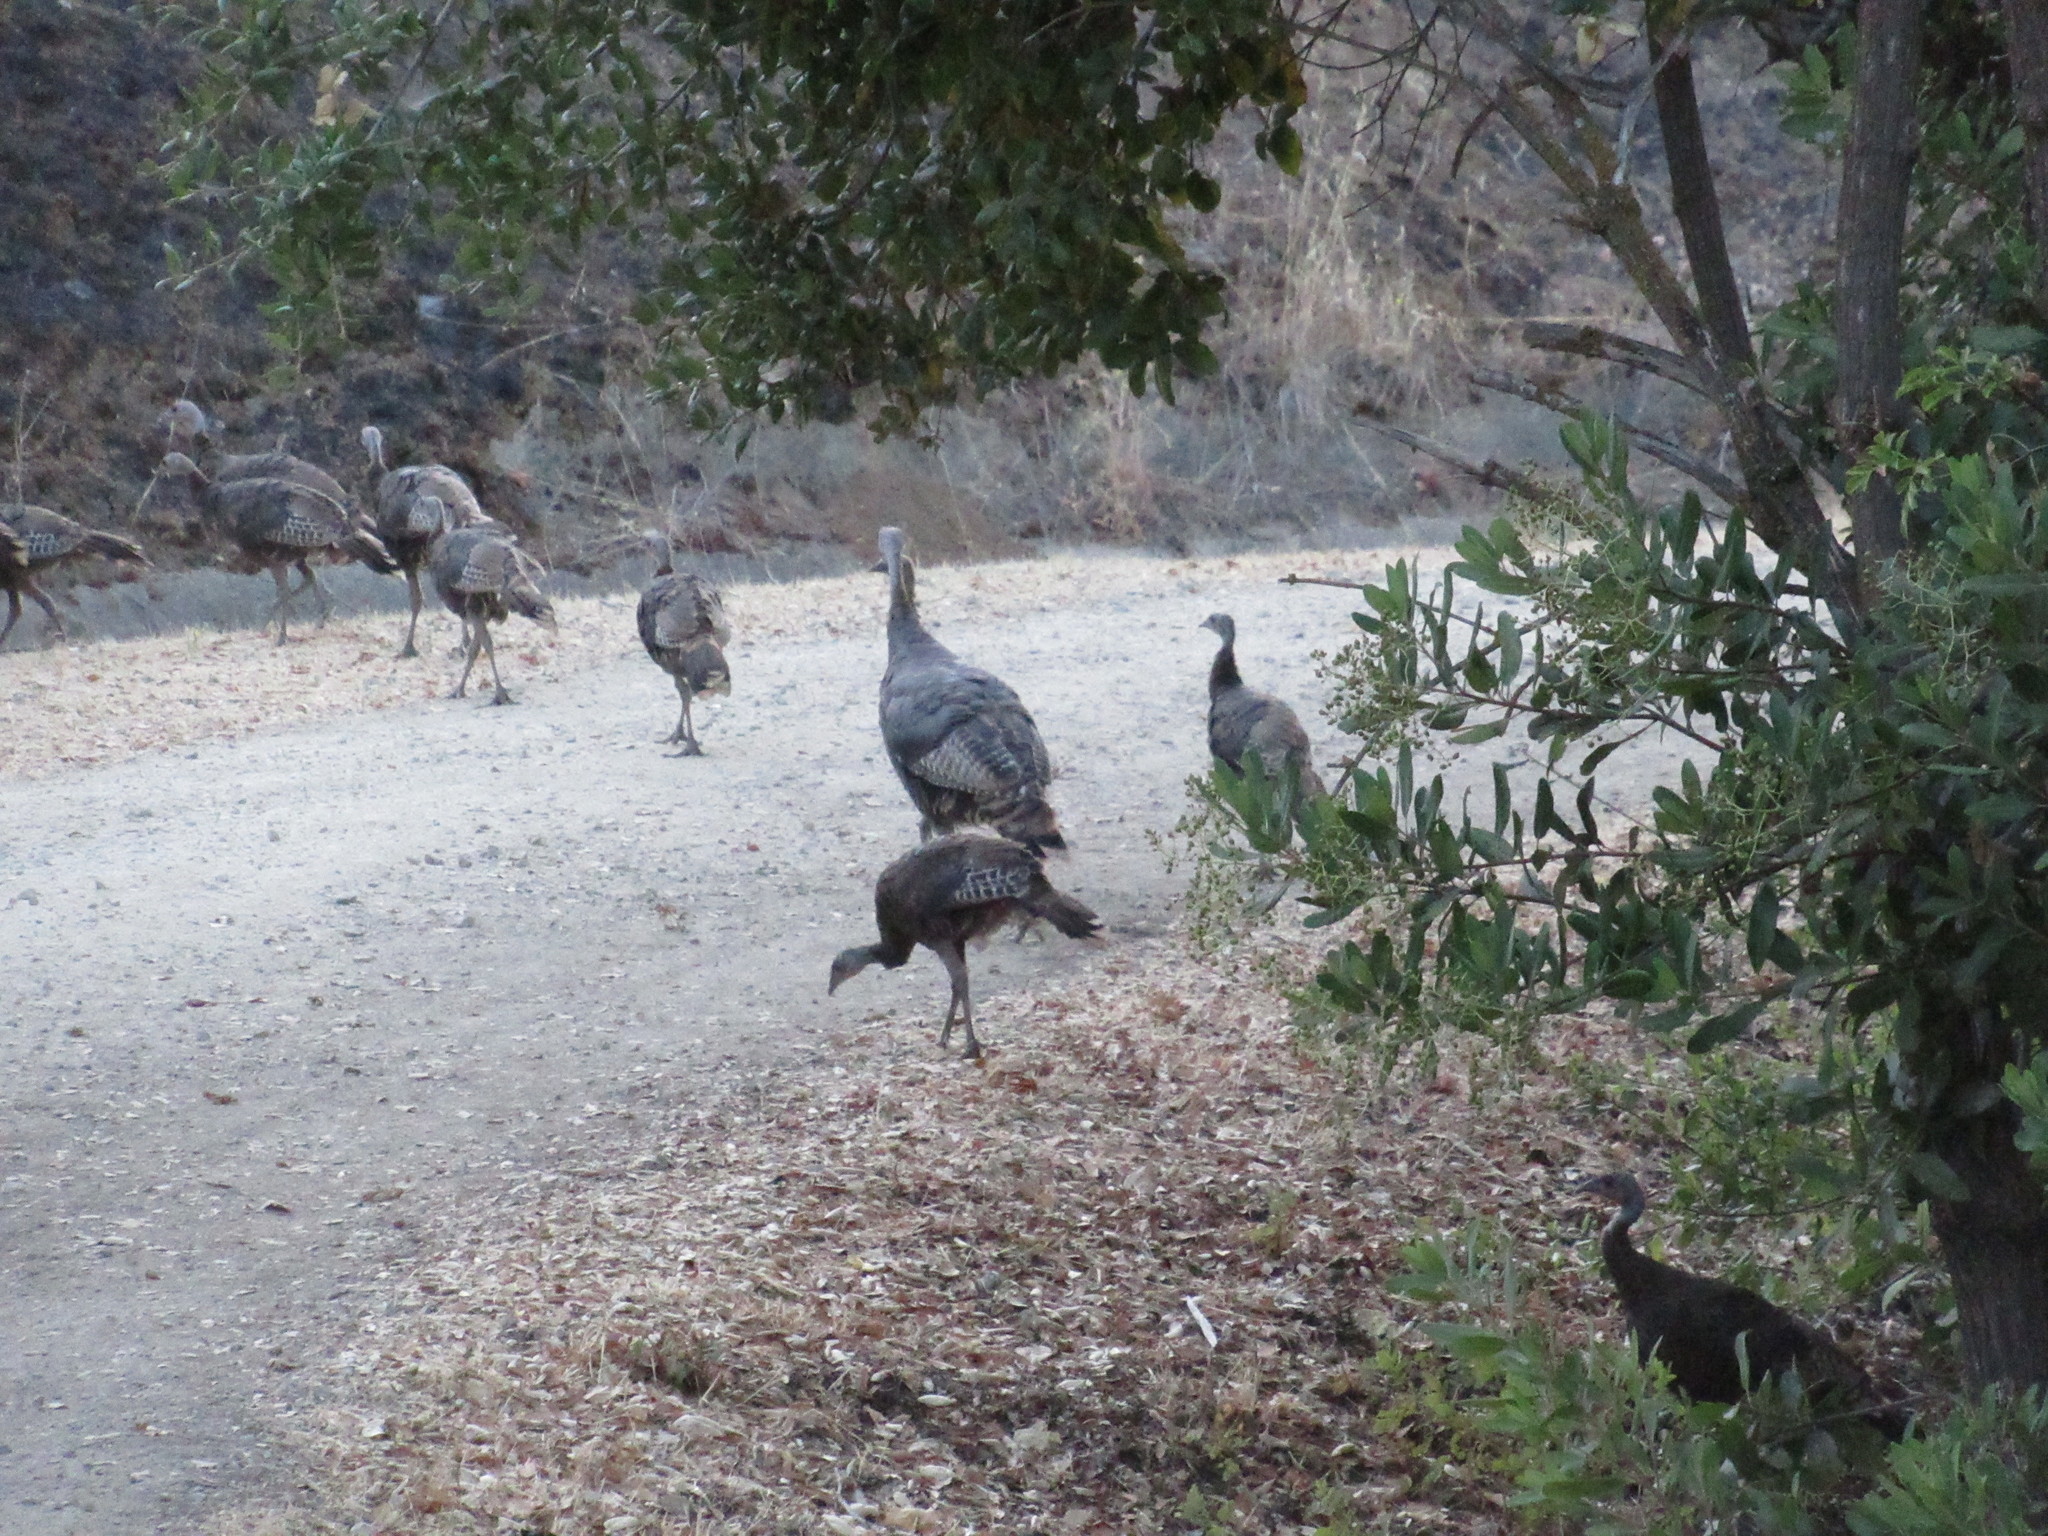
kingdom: Animalia
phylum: Chordata
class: Aves
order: Galliformes
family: Phasianidae
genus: Meleagris
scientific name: Meleagris gallopavo
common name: Wild turkey
